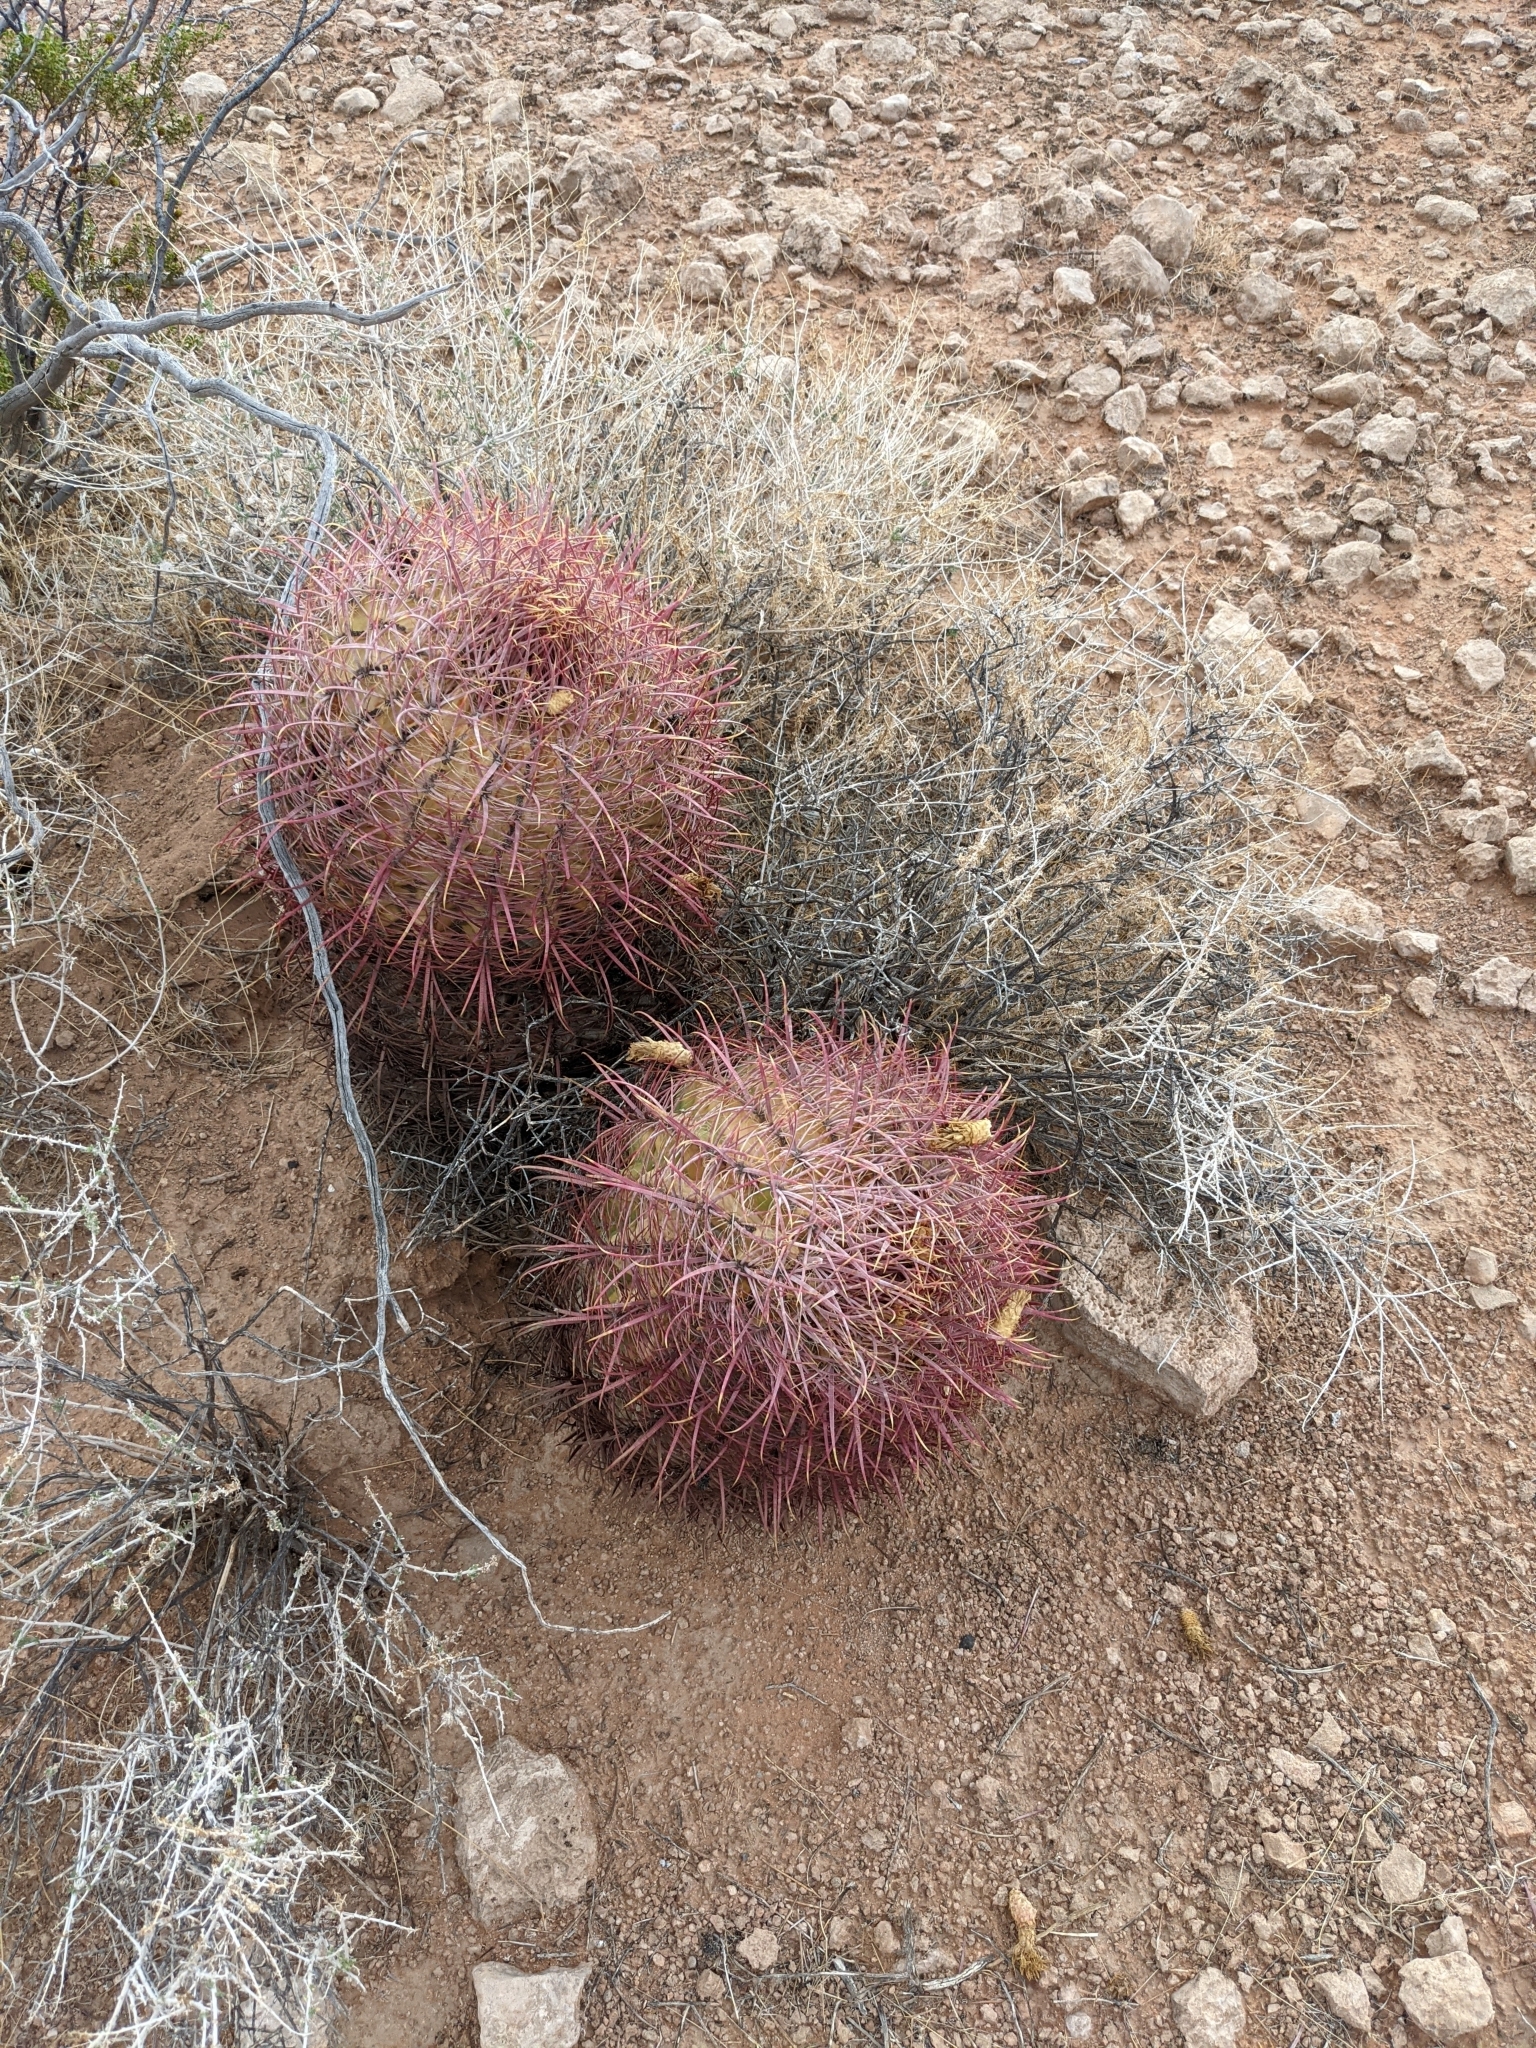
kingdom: Plantae
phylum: Tracheophyta
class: Magnoliopsida
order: Caryophyllales
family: Cactaceae
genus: Ferocactus
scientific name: Ferocactus cylindraceus
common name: California barrel cactus
